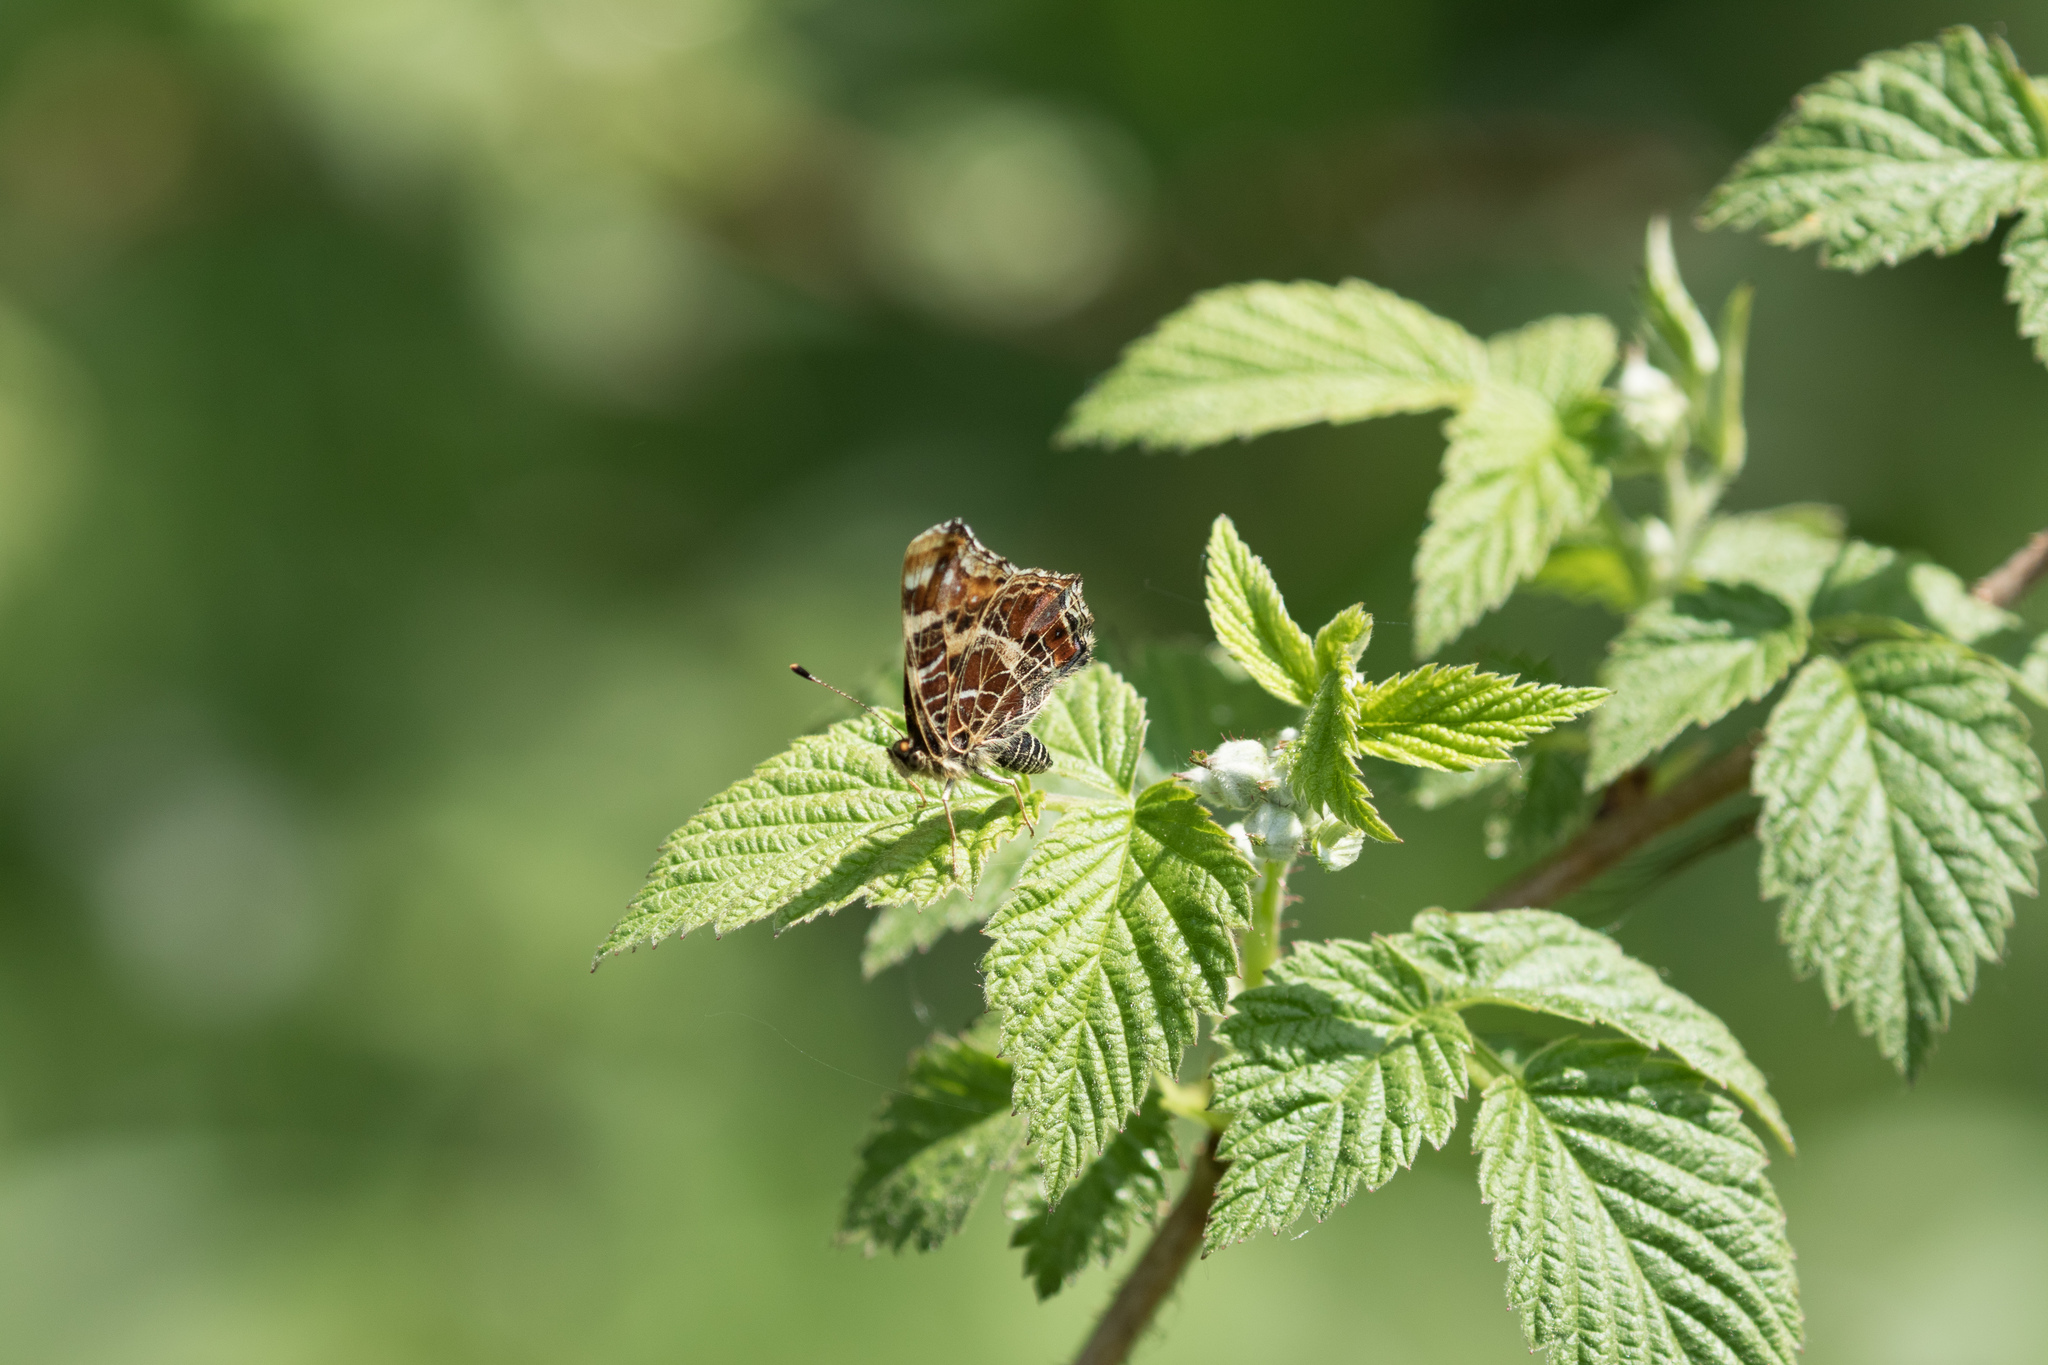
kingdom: Animalia
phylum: Arthropoda
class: Insecta
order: Lepidoptera
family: Nymphalidae
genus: Araschnia
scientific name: Araschnia levana
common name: Map butterfly
